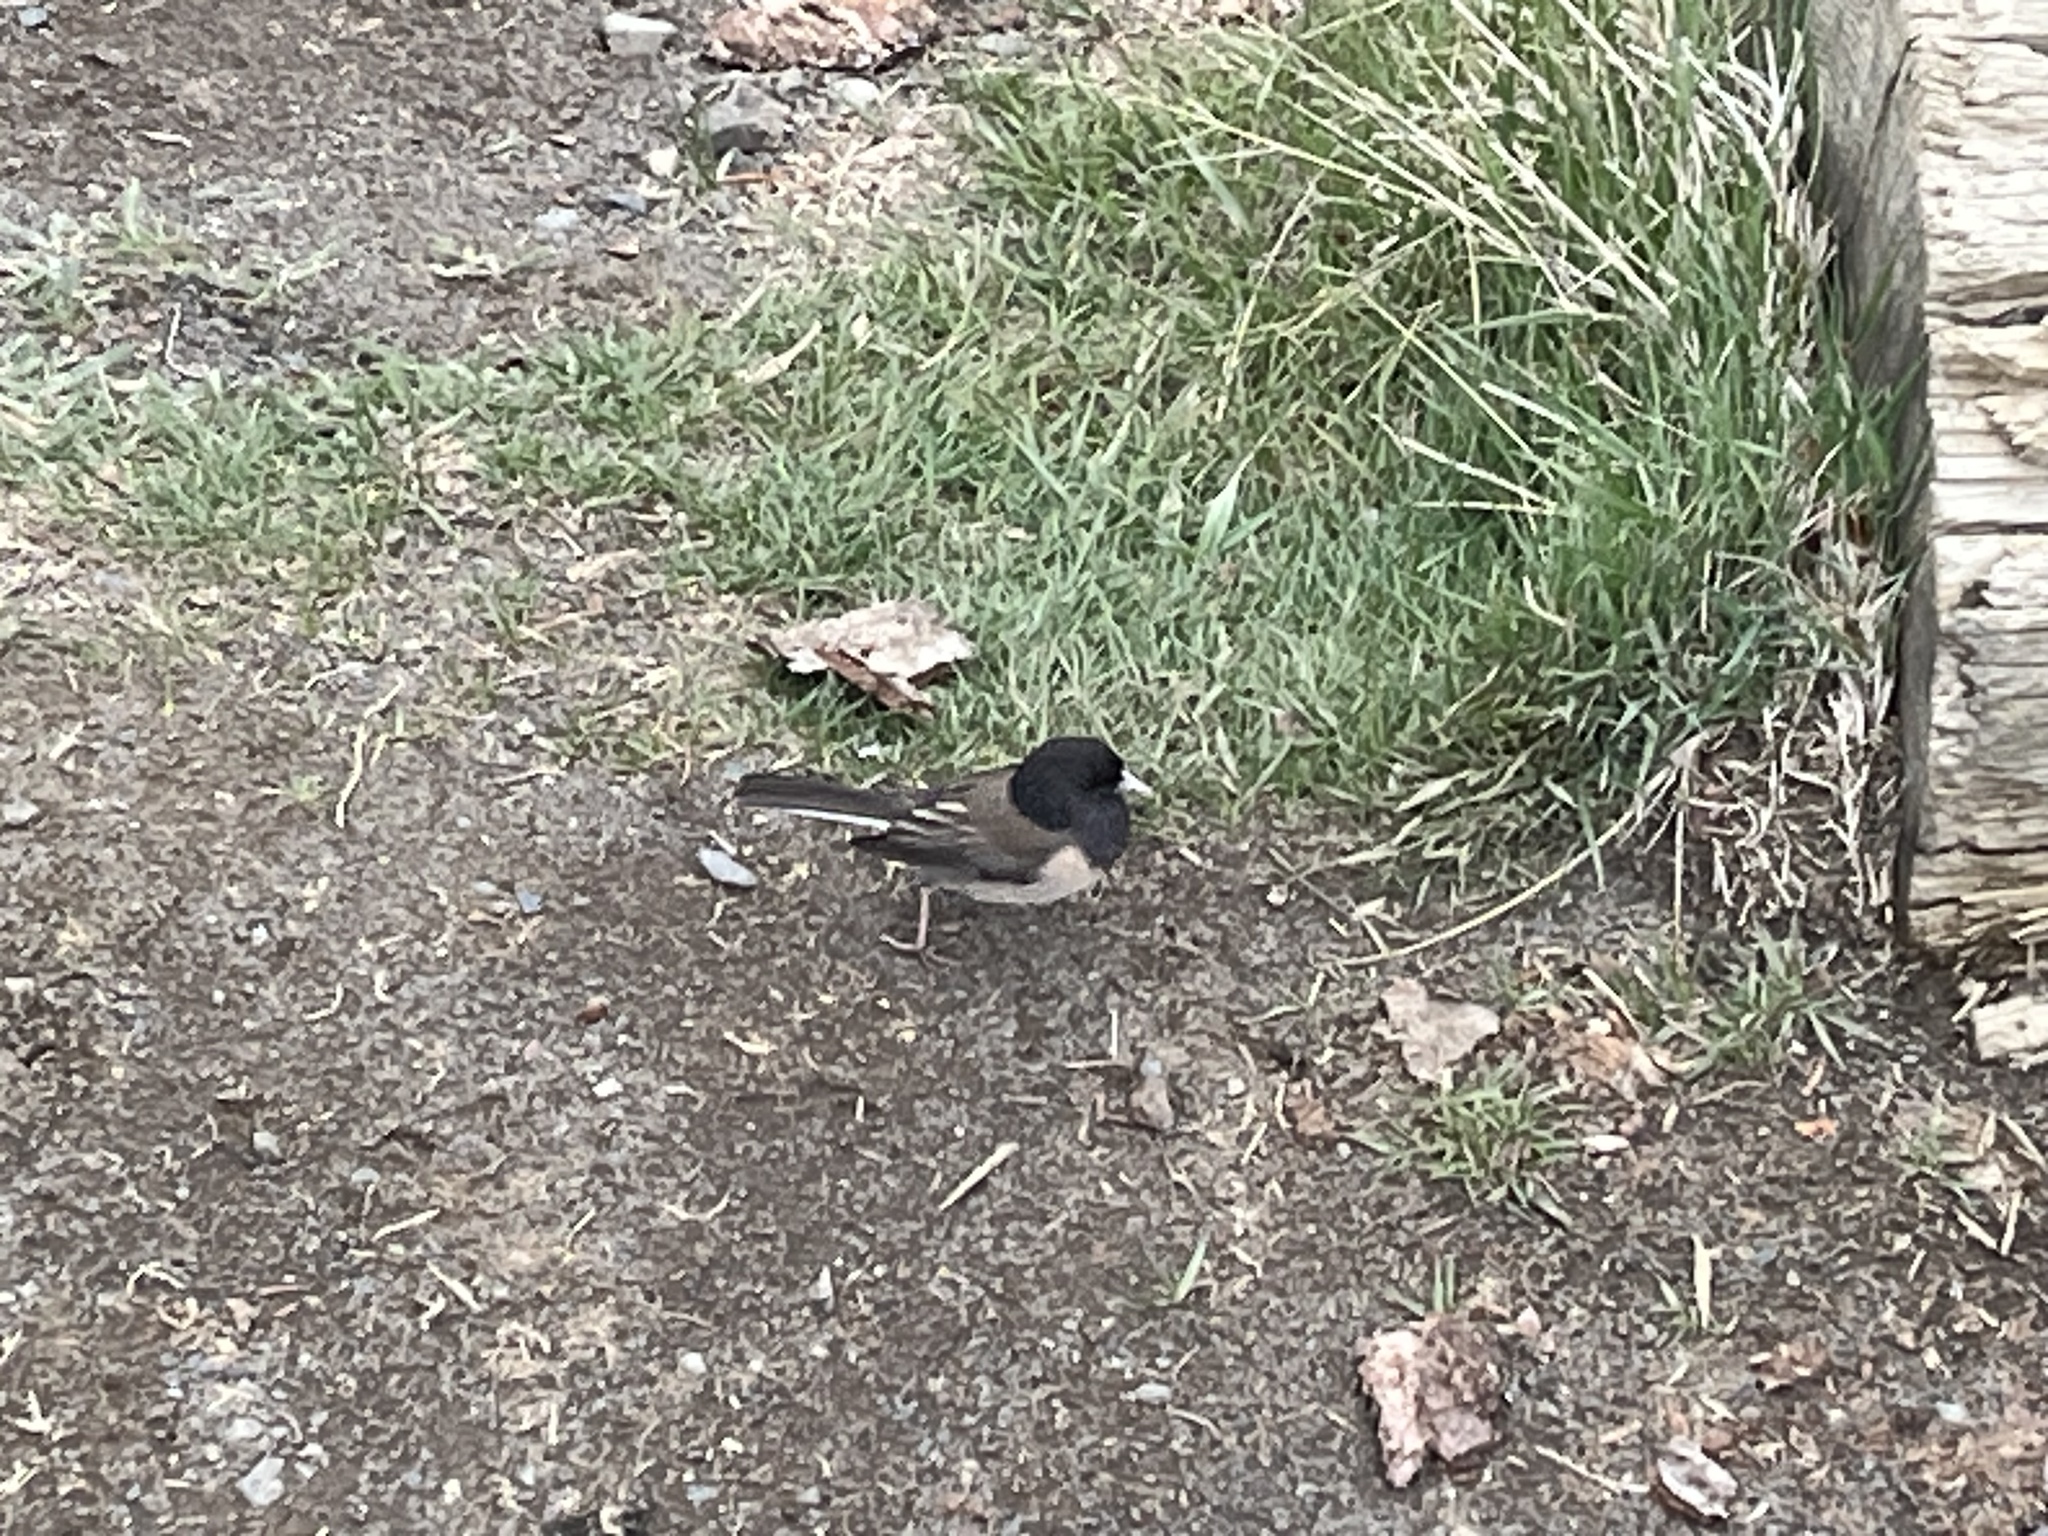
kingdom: Animalia
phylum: Chordata
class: Aves
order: Passeriformes
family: Passerellidae
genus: Junco
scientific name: Junco hyemalis
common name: Dark-eyed junco
